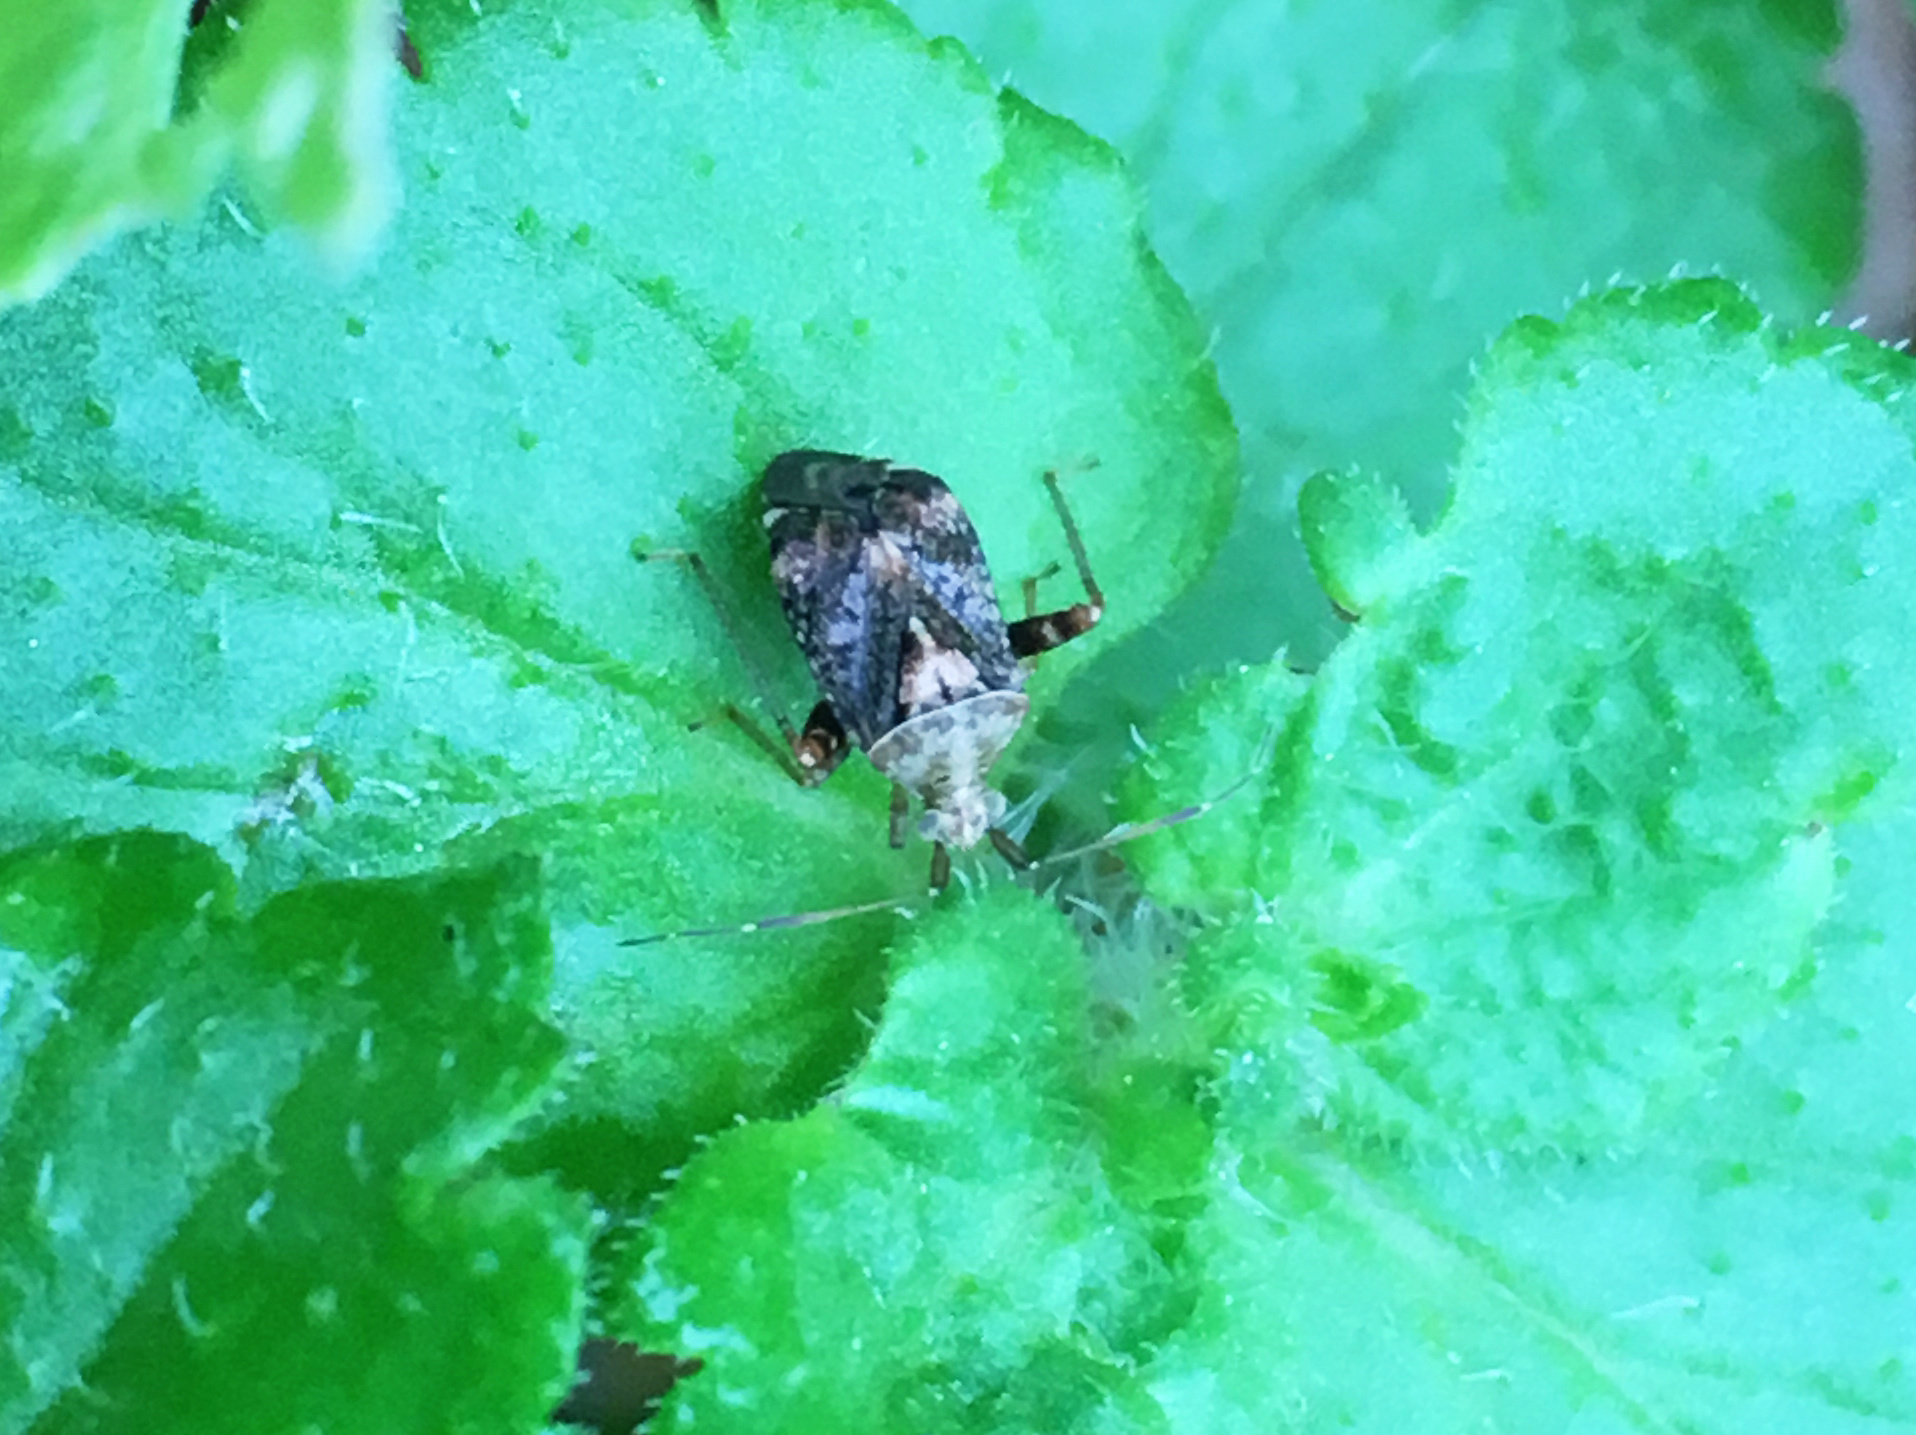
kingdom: Animalia
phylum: Arthropoda
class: Insecta
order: Hemiptera
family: Miridae
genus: Sidnia
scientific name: Sidnia kinbergi
